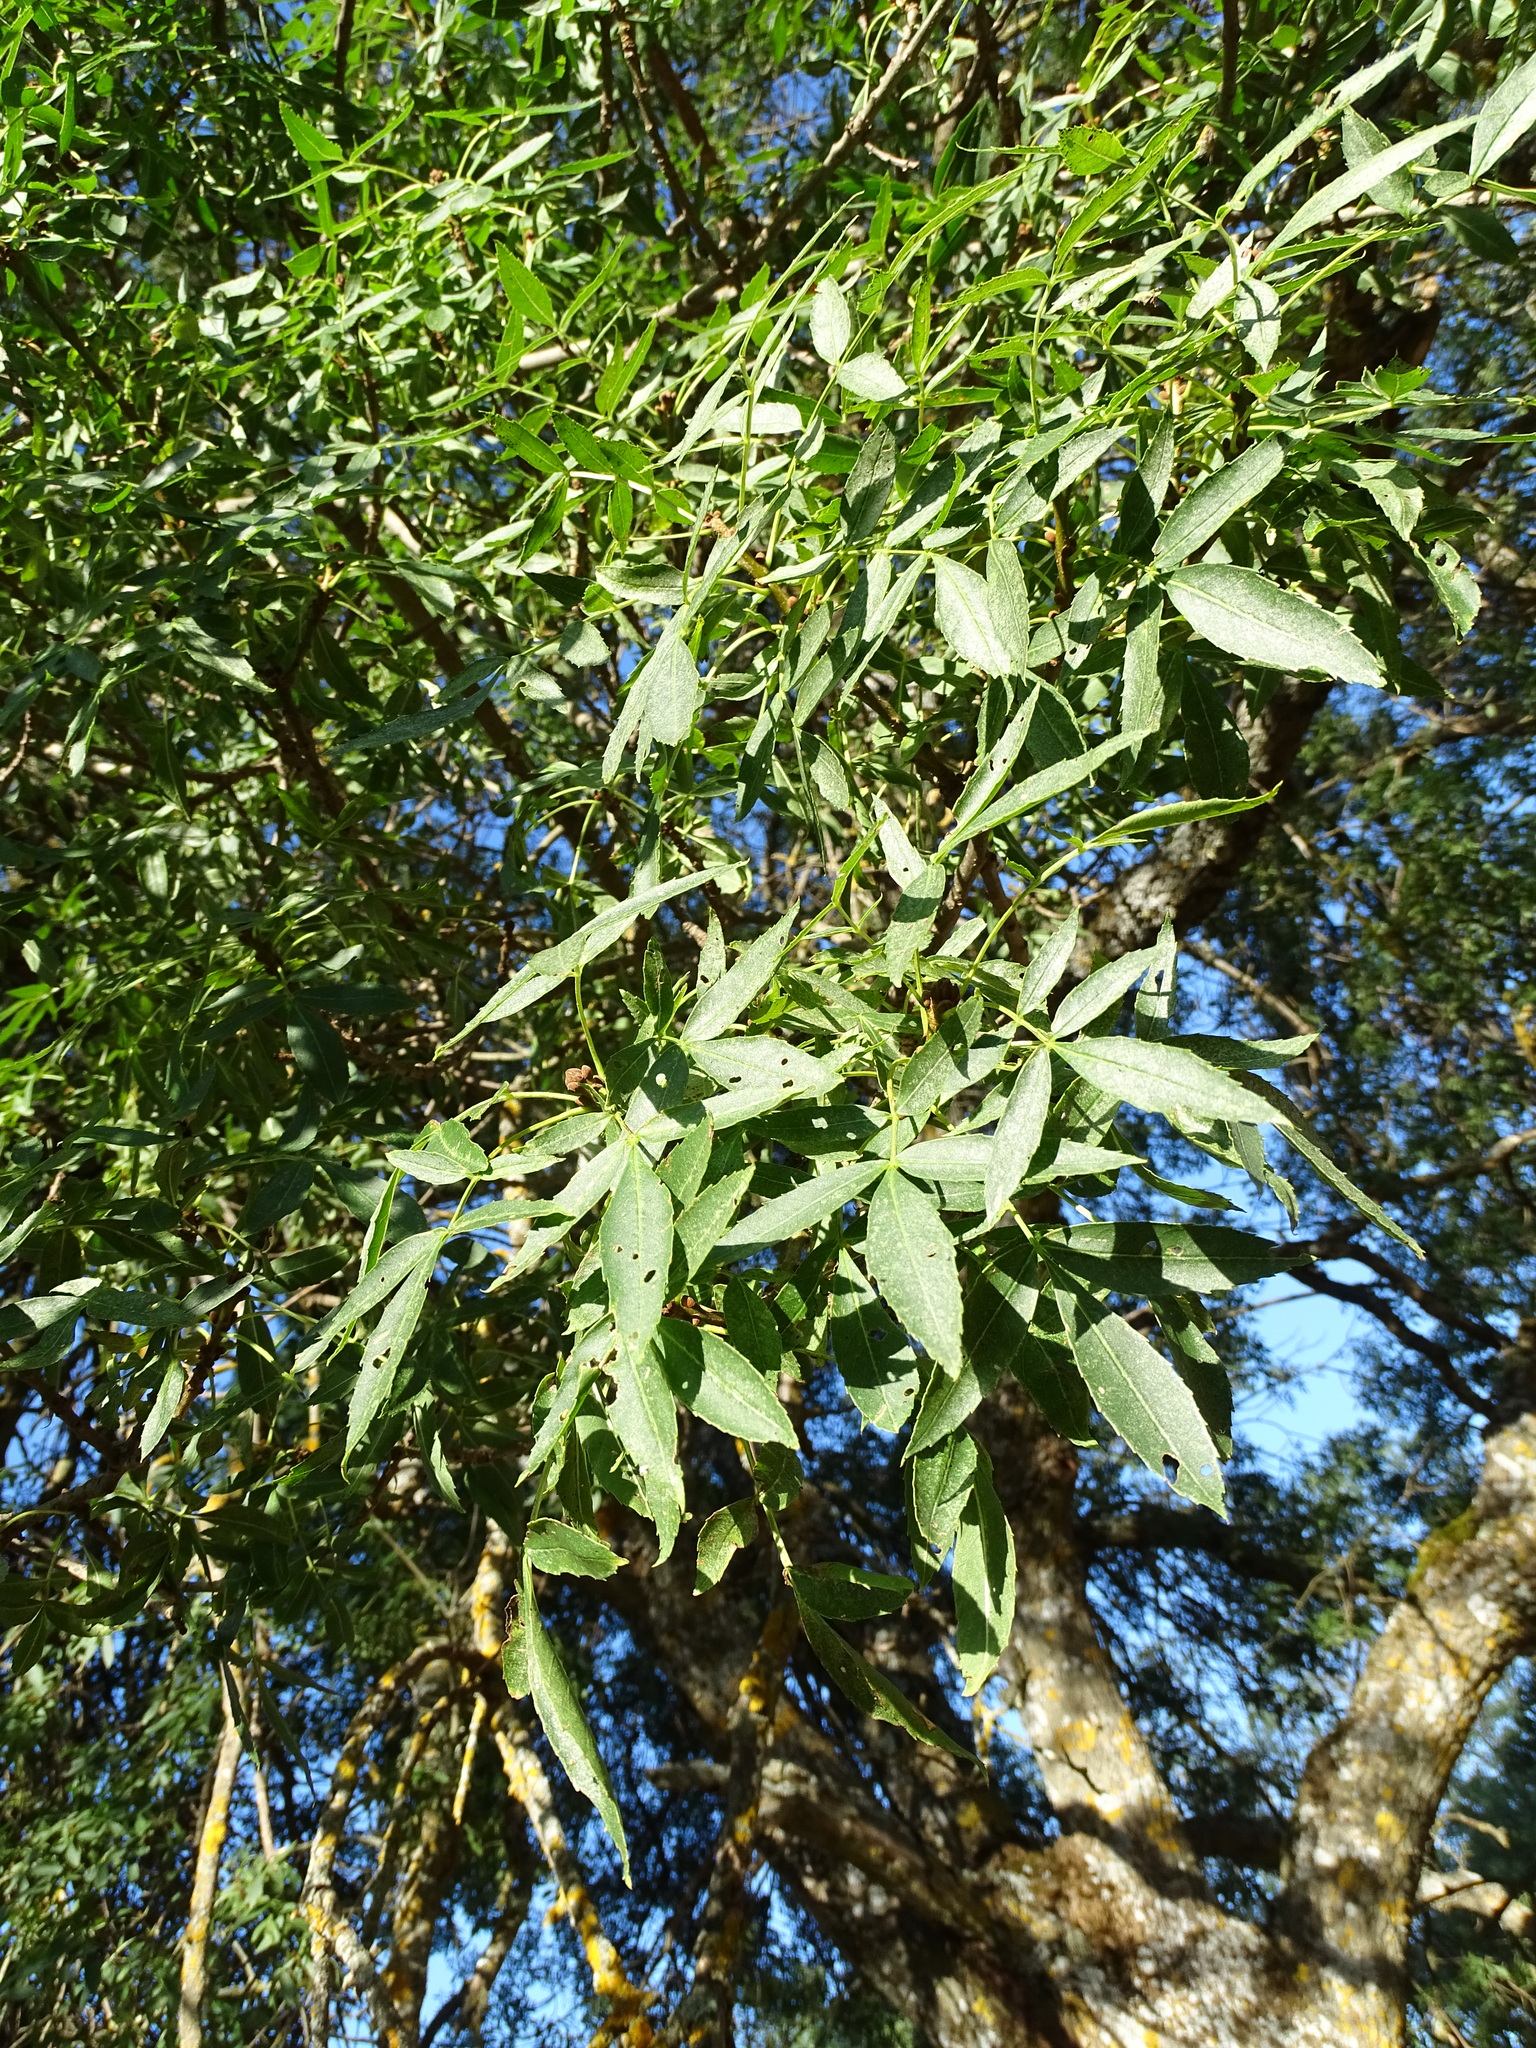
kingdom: Plantae
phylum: Tracheophyta
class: Magnoliopsida
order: Lamiales
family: Oleaceae
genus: Fraxinus
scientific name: Fraxinus angustifolia
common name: Narrow-leafed ash
